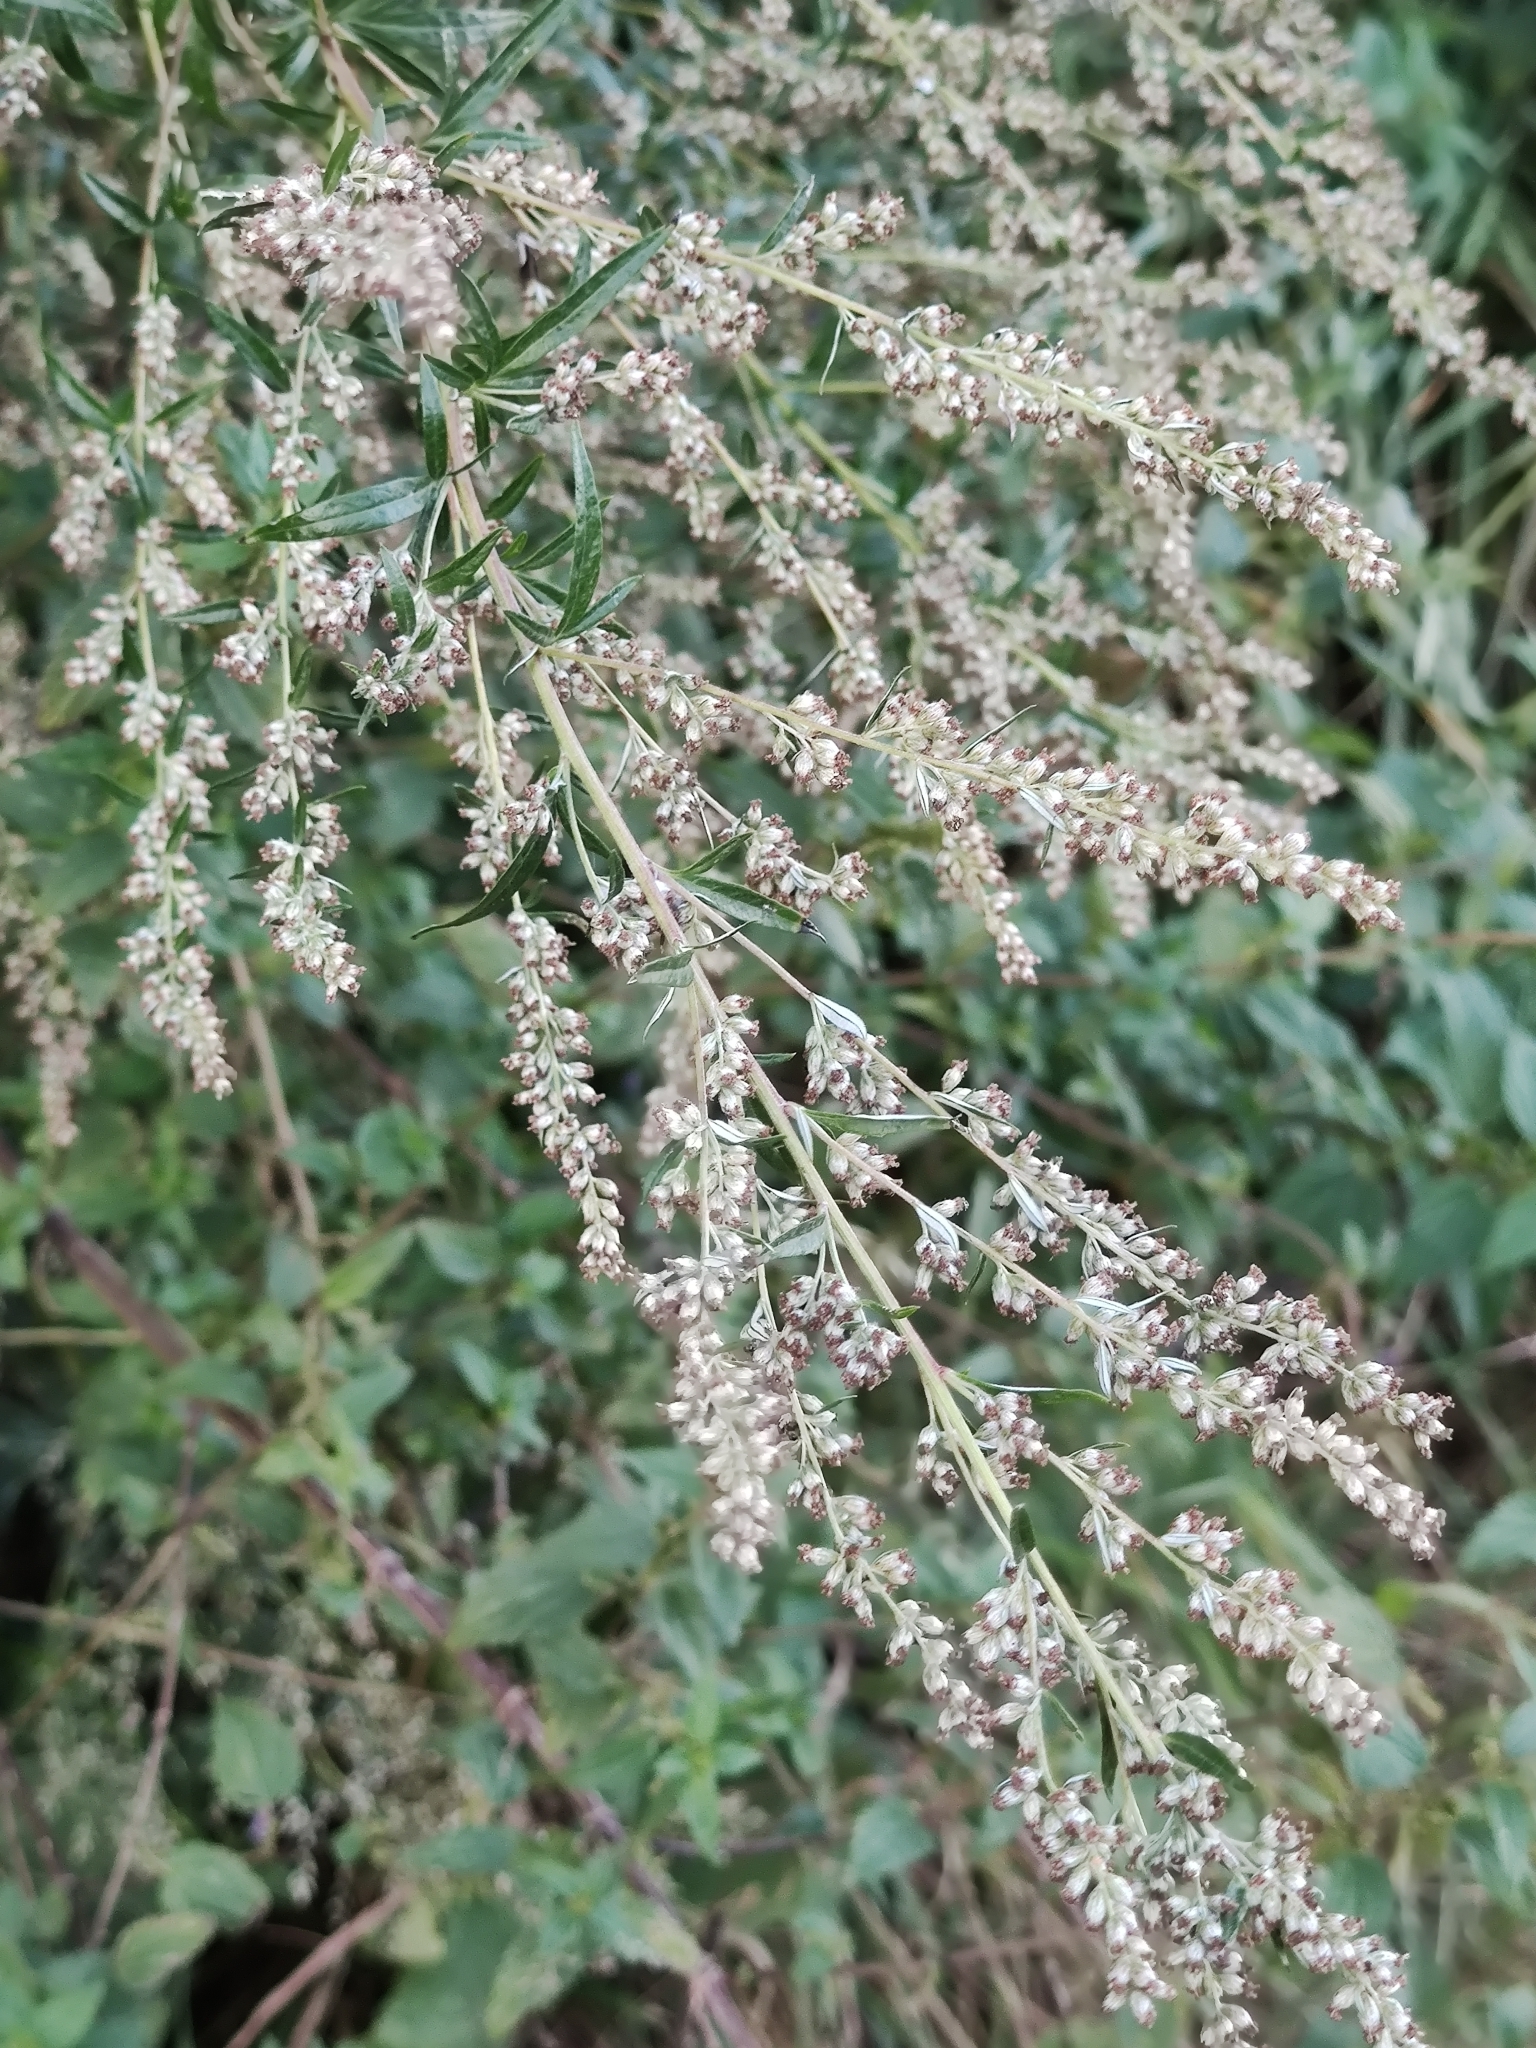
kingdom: Plantae
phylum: Tracheophyta
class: Magnoliopsida
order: Asterales
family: Asteraceae
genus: Artemisia
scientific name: Artemisia vulgaris
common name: Mugwort
